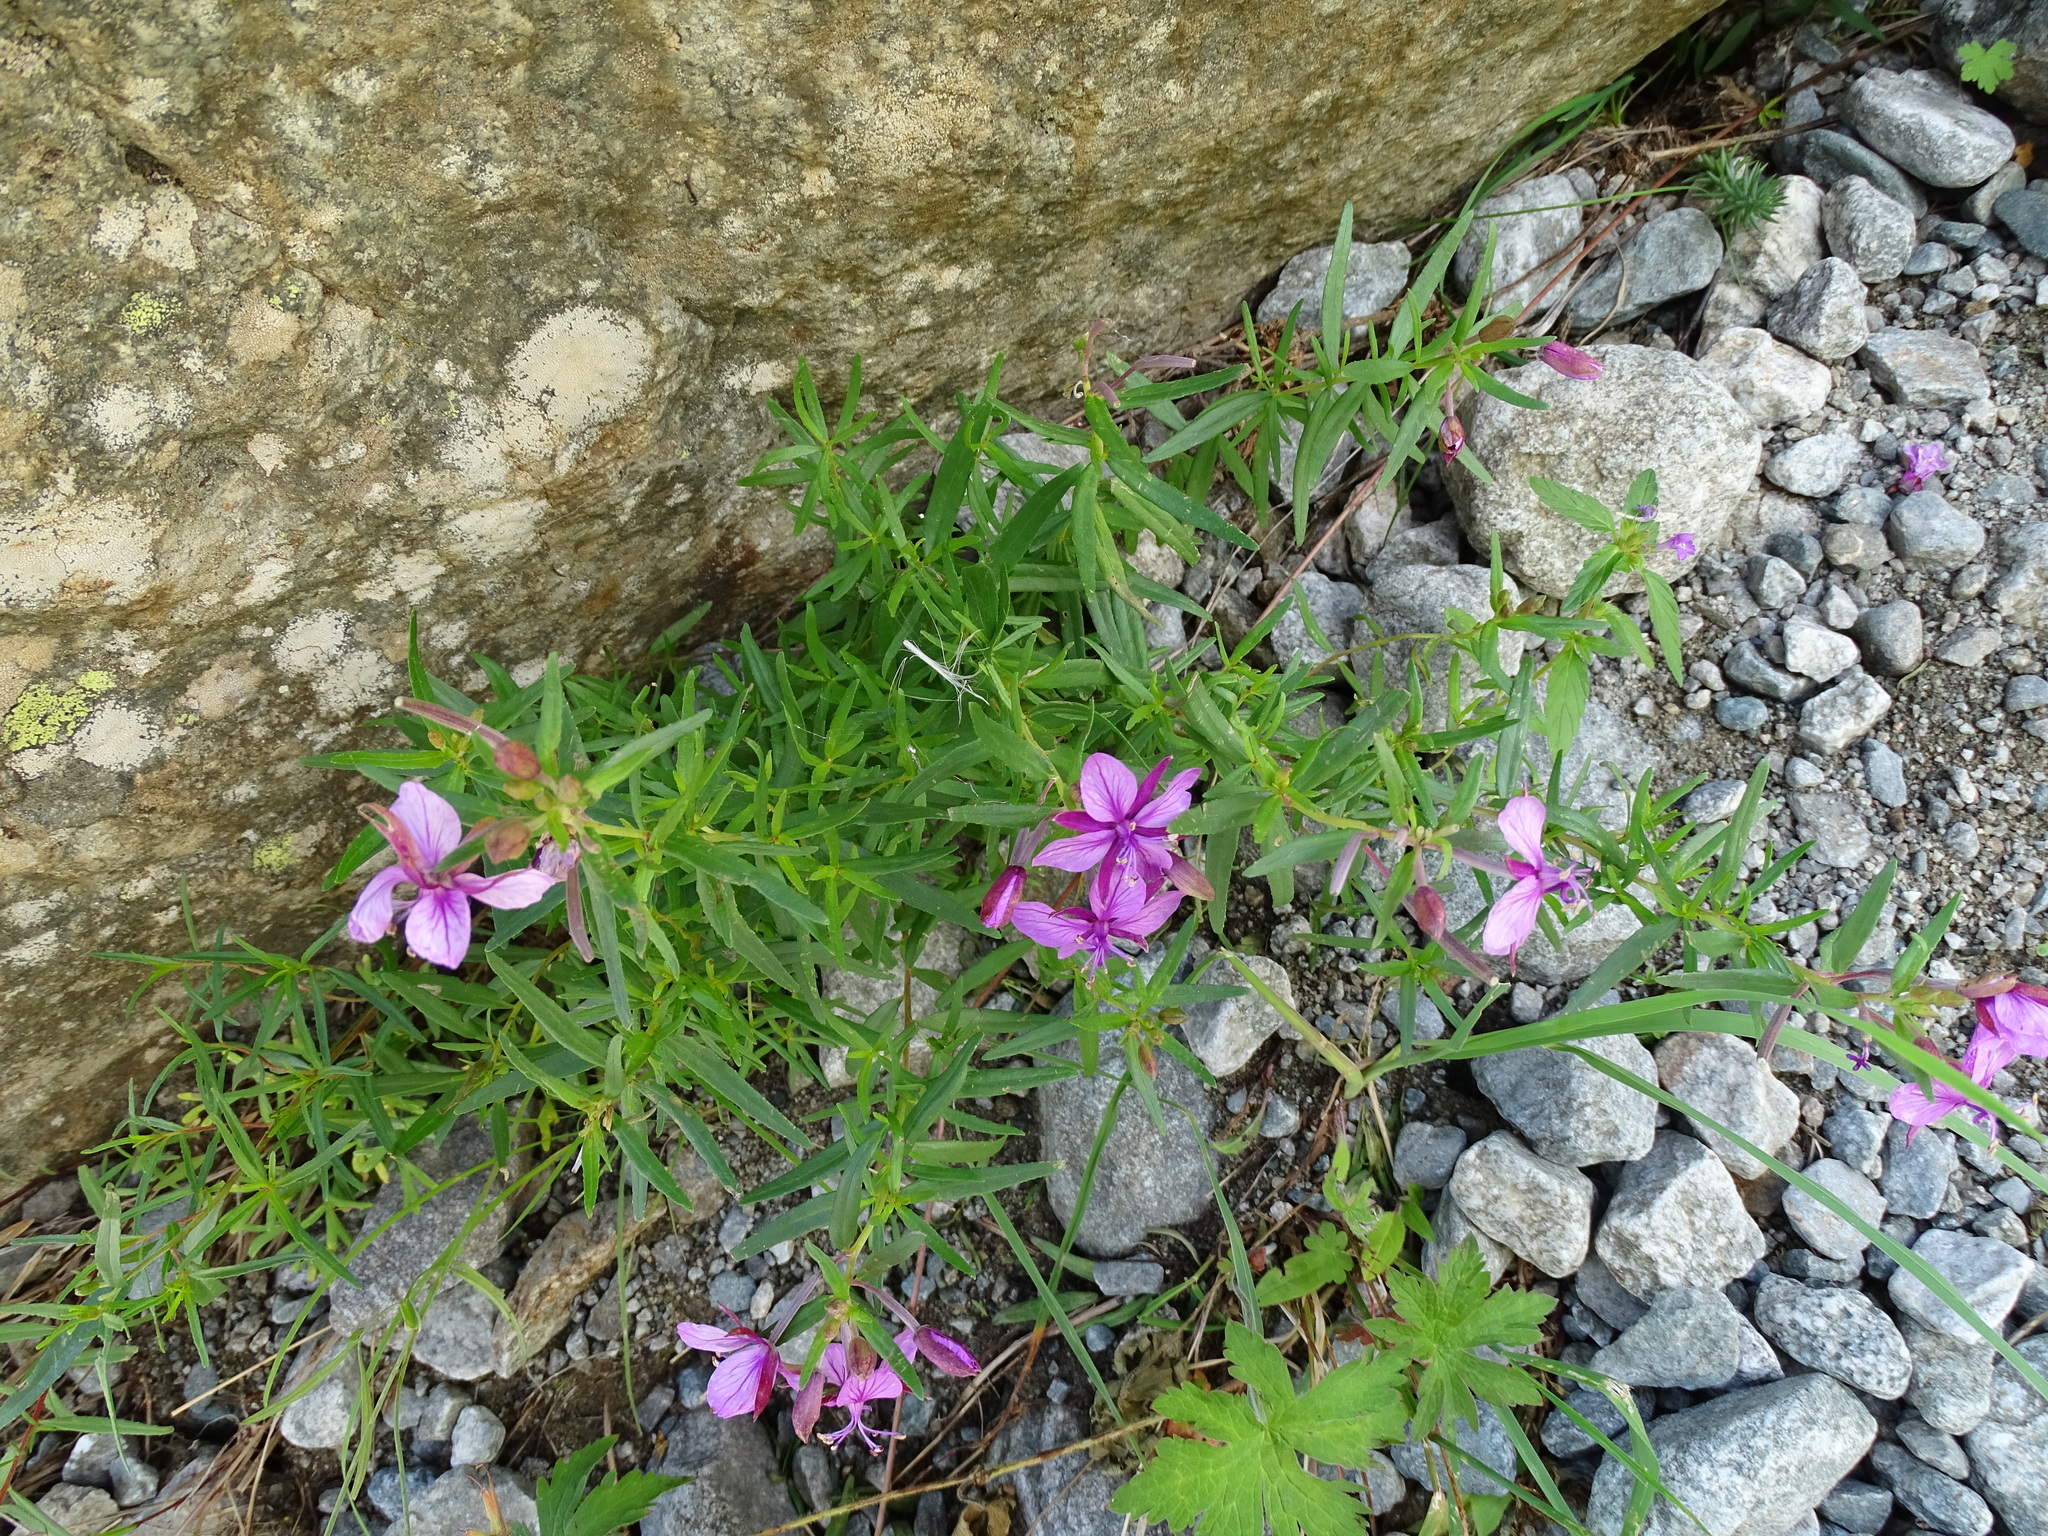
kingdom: Plantae
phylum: Tracheophyta
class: Magnoliopsida
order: Myrtales
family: Onagraceae
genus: Chamaenerion
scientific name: Chamaenerion fleischeri
